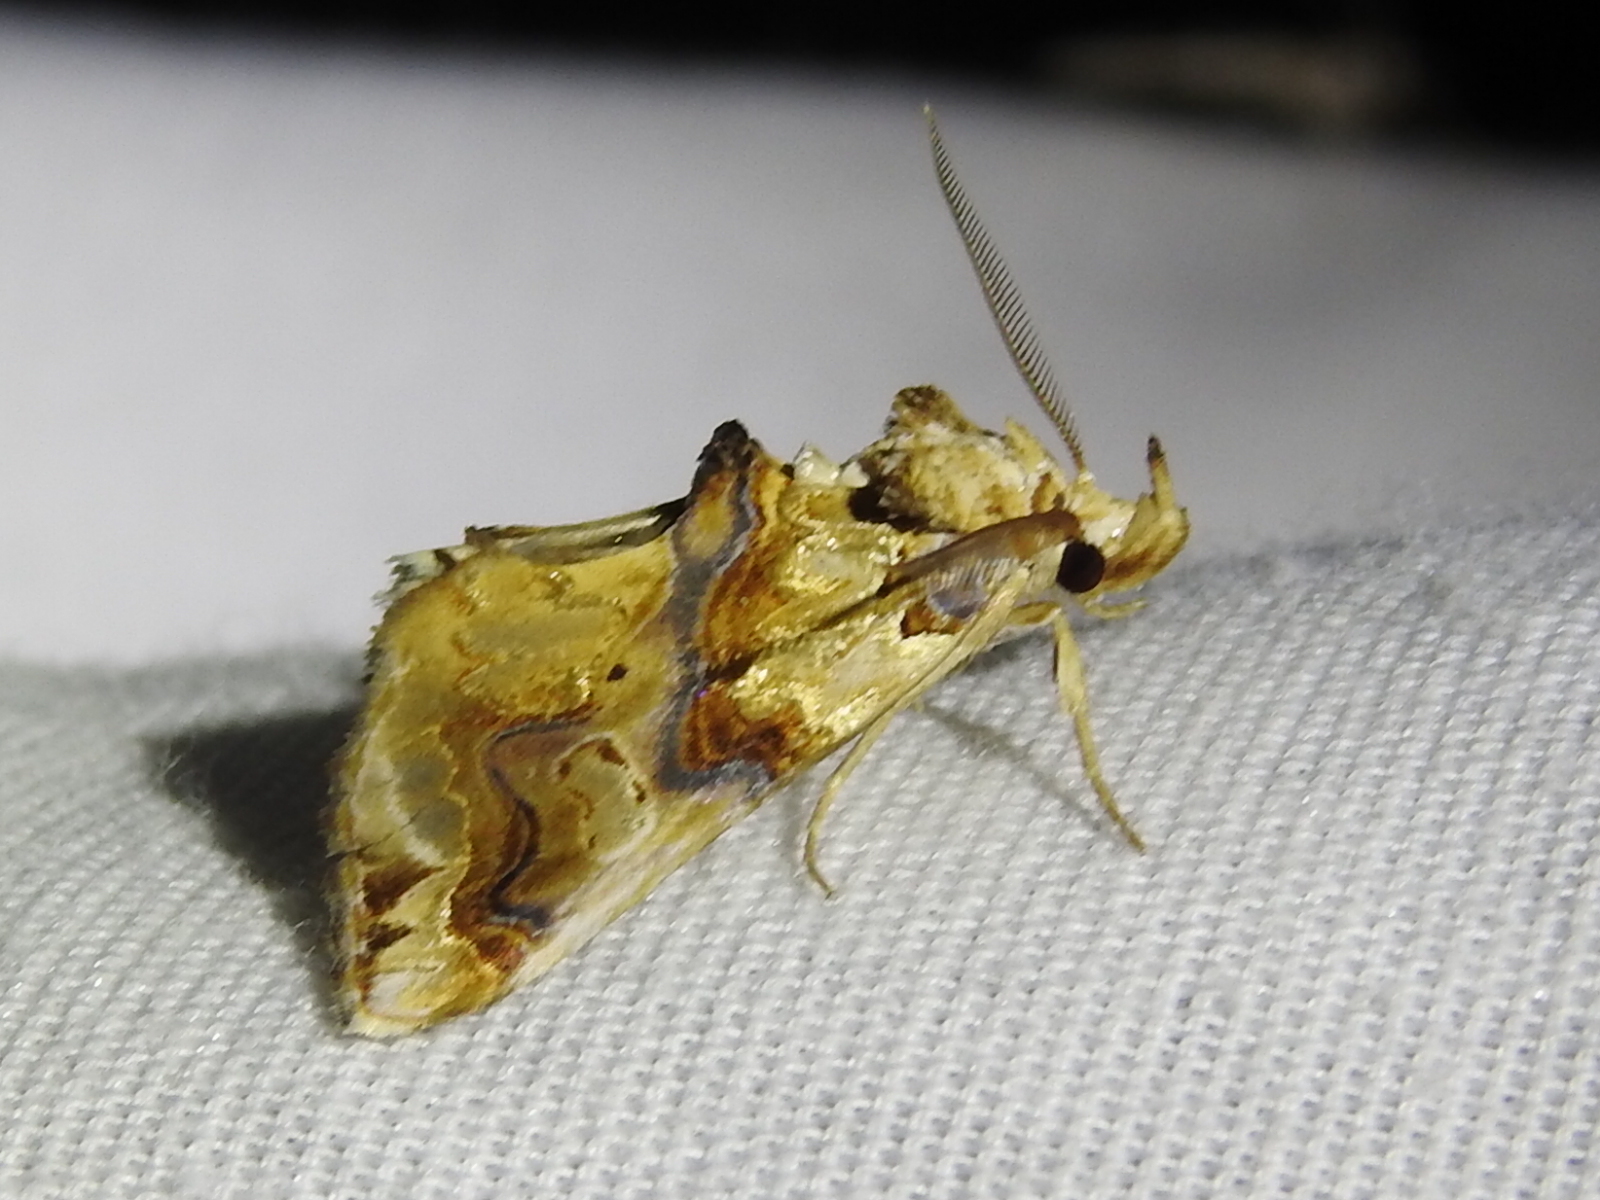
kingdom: Animalia
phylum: Arthropoda
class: Insecta
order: Lepidoptera
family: Erebidae
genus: Plusiodonta
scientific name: Plusiodonta compressipalpis
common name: Moonseed moth
